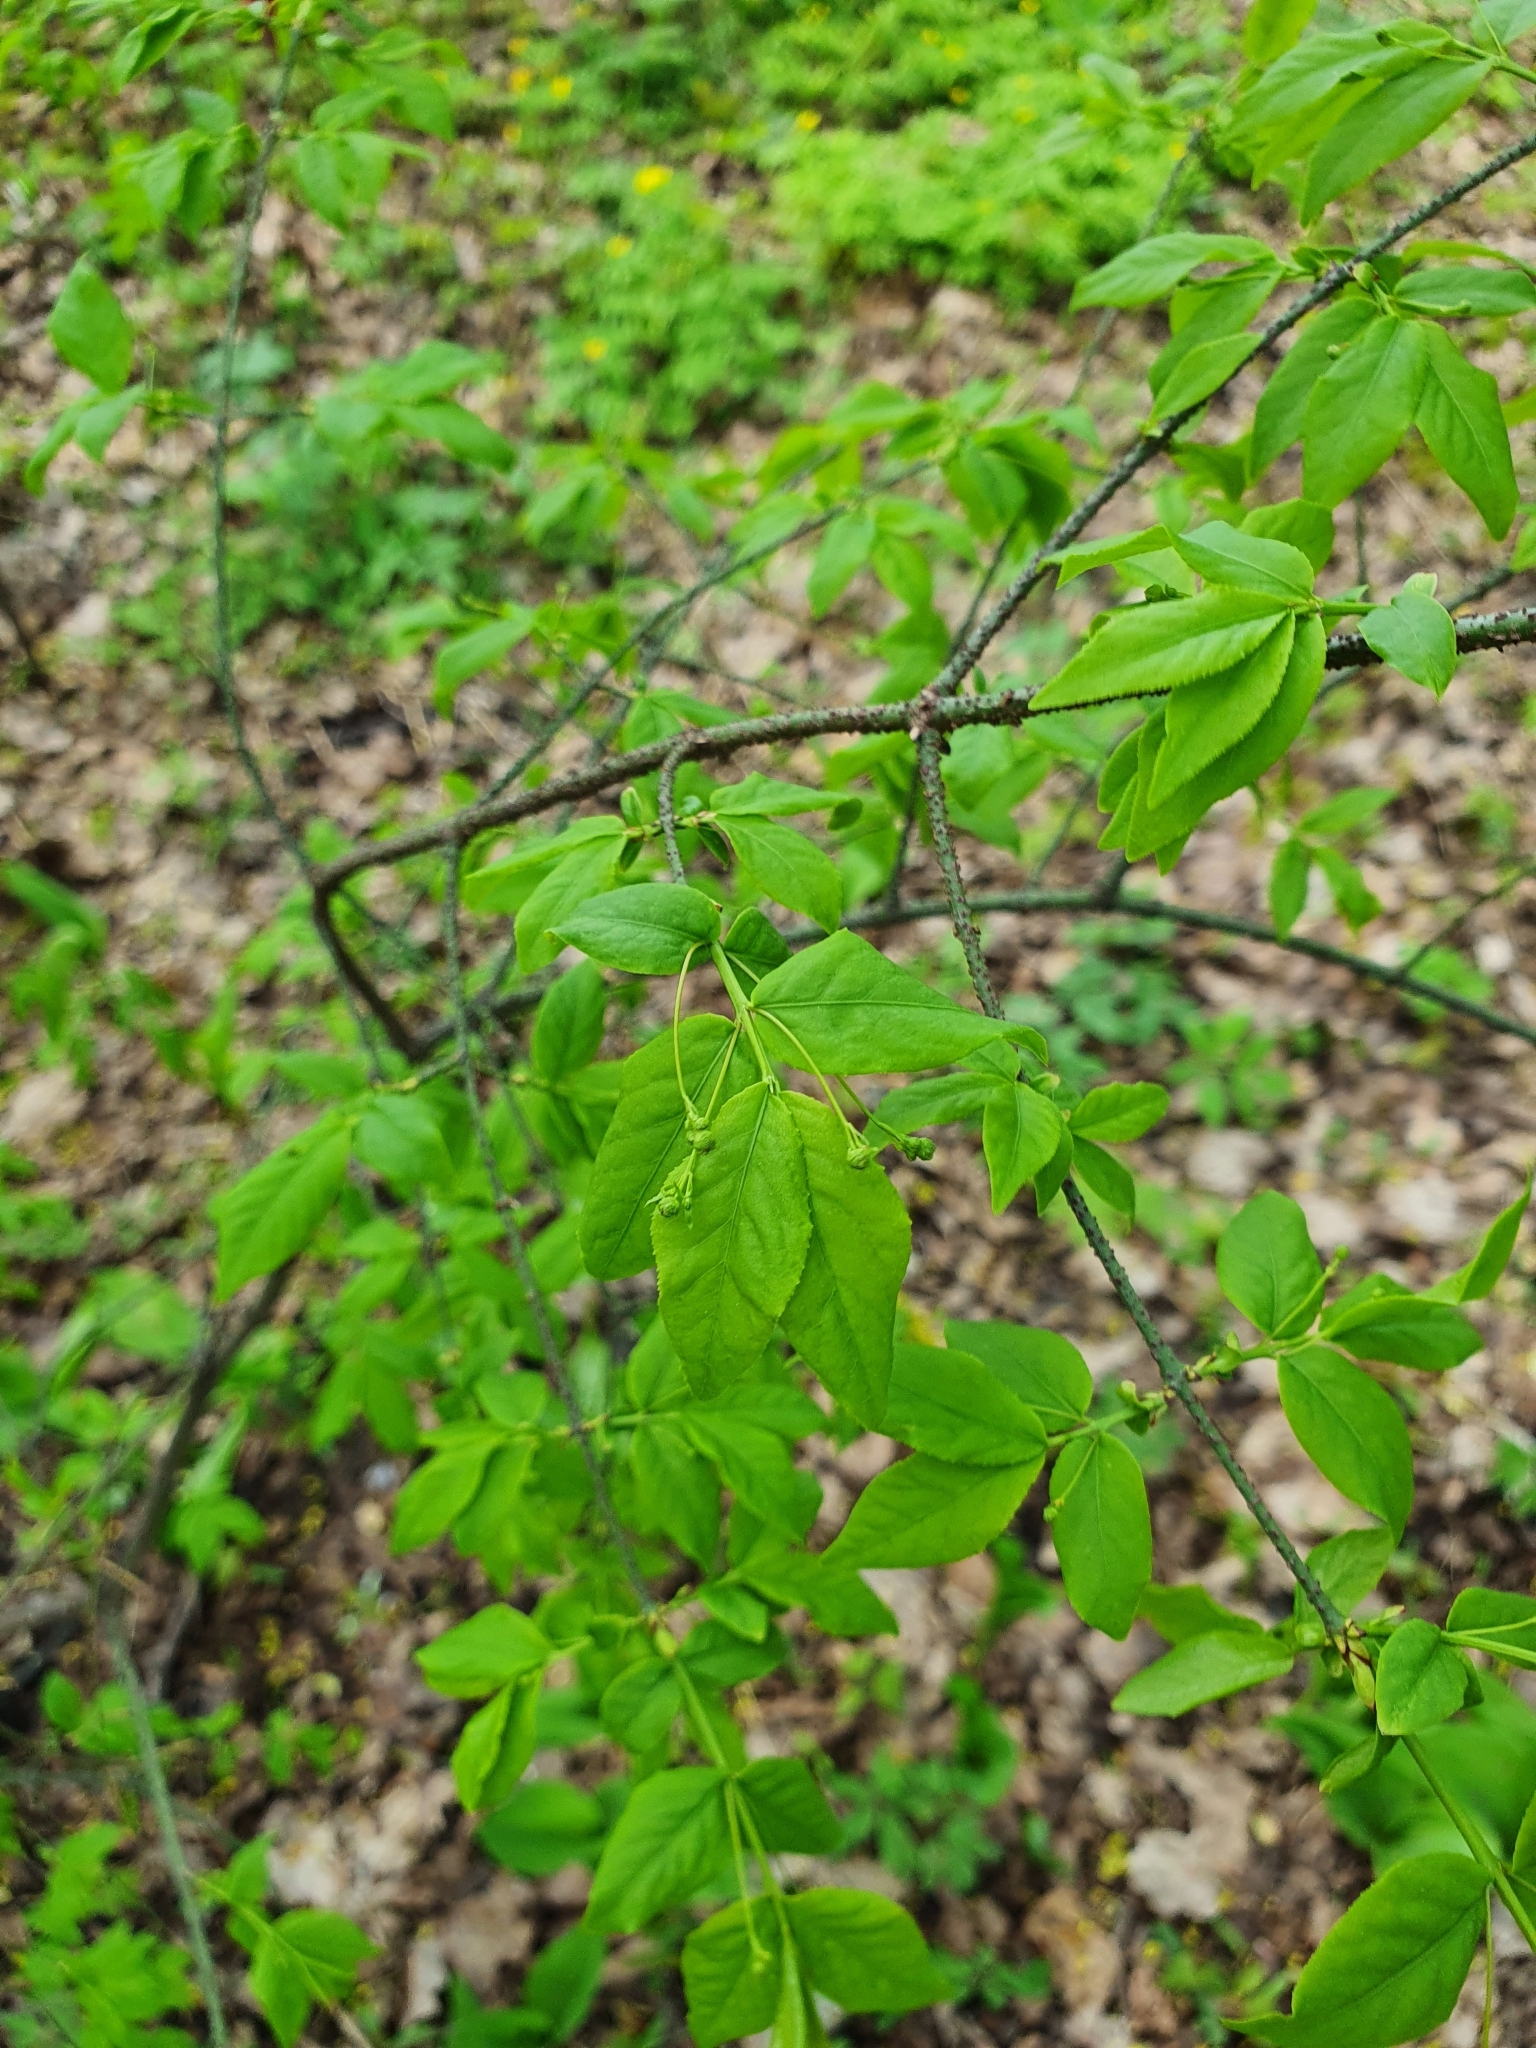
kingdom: Plantae
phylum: Tracheophyta
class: Magnoliopsida
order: Celastrales
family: Celastraceae
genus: Euonymus
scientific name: Euonymus verrucosus
